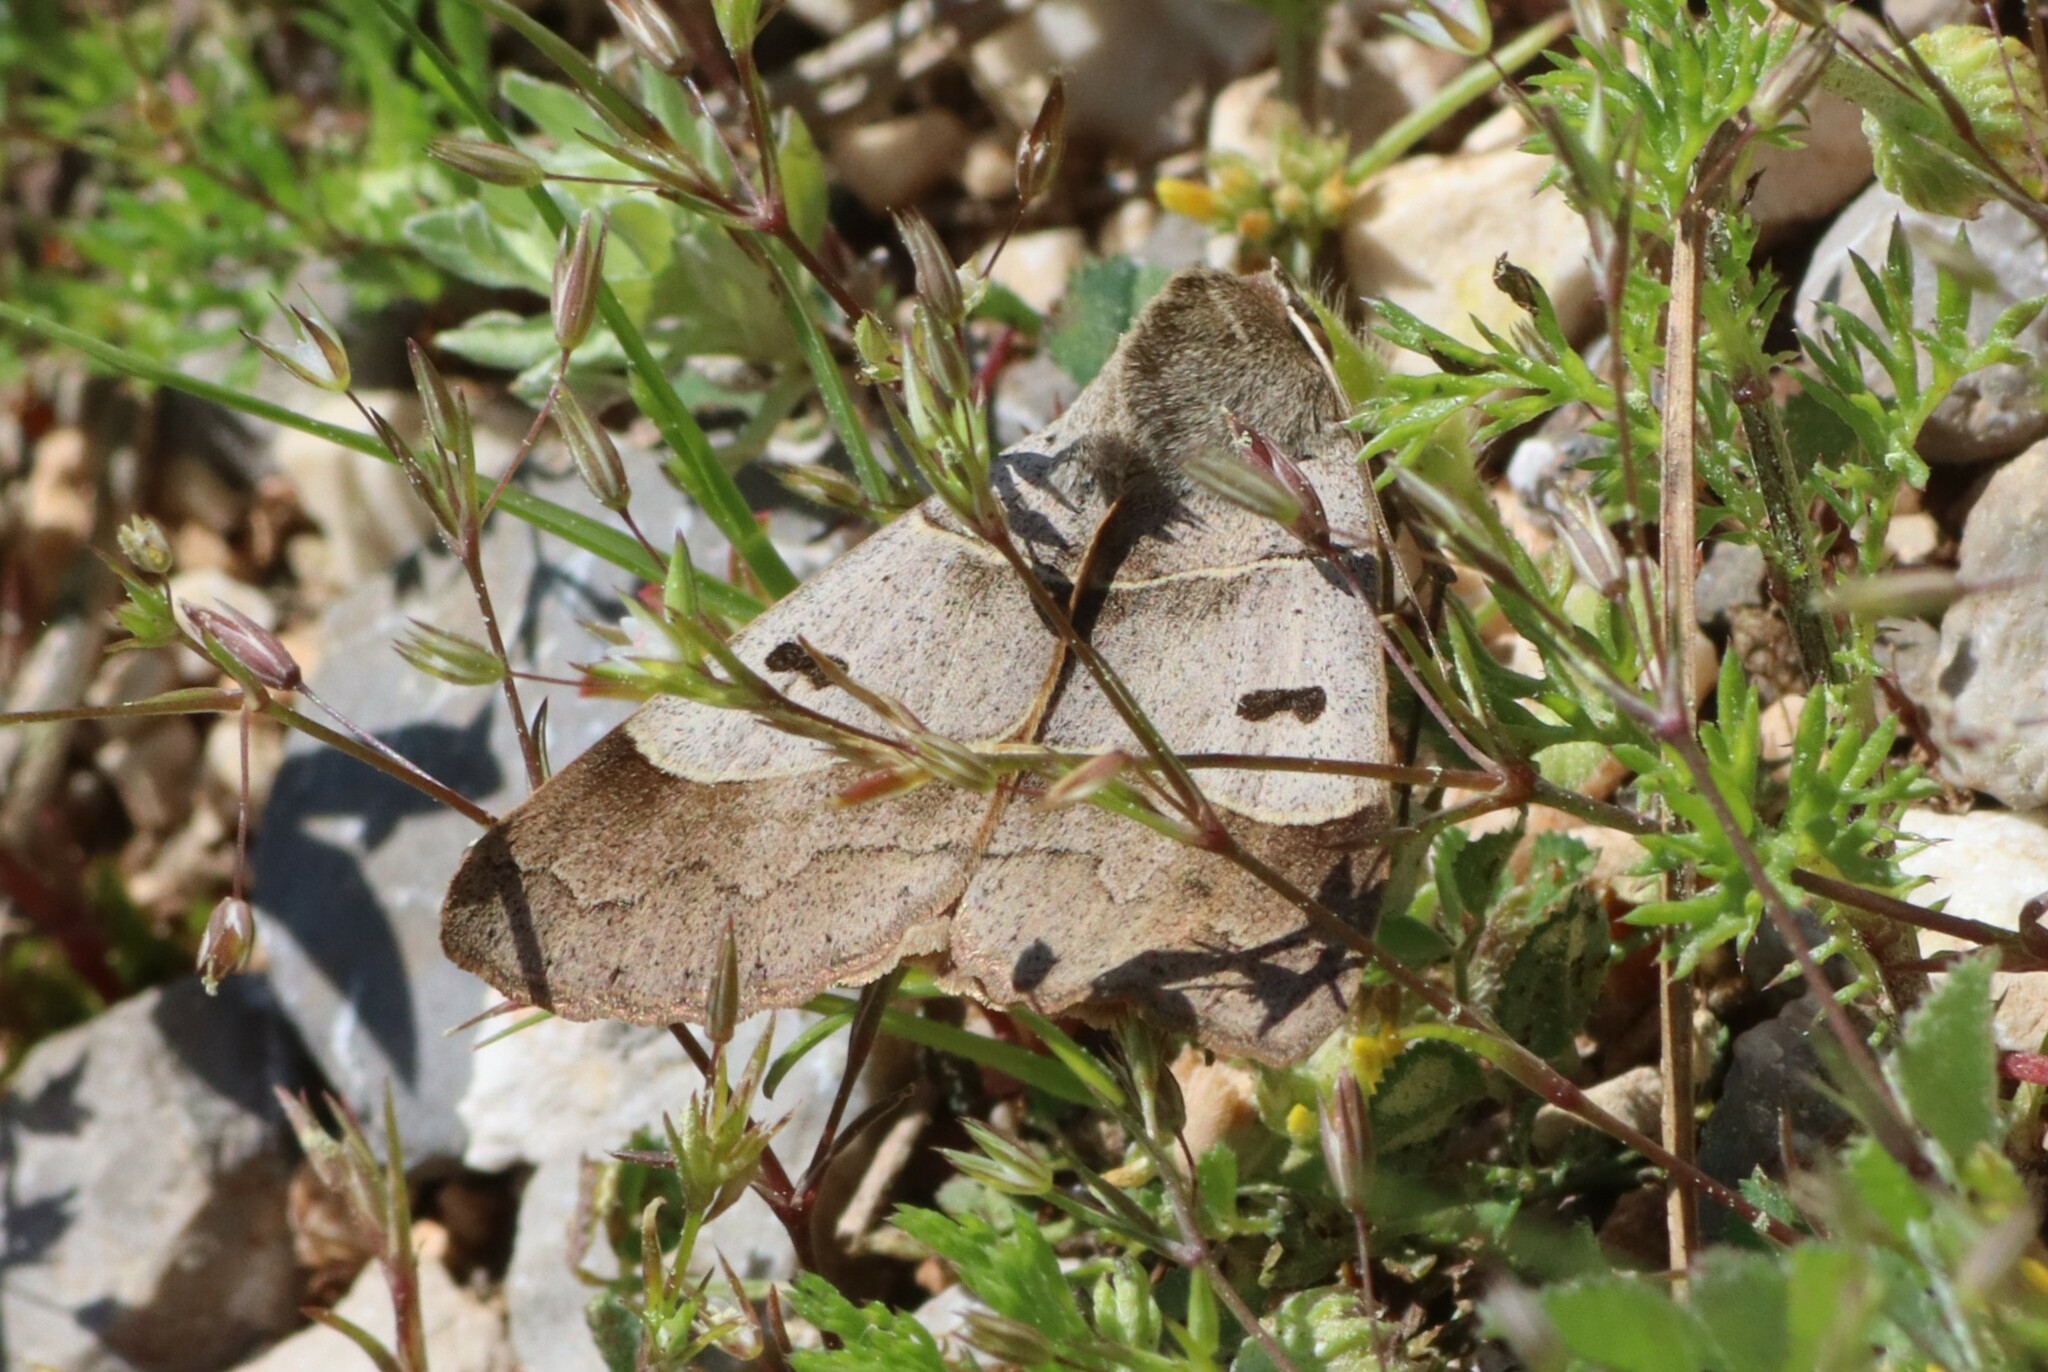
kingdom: Animalia
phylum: Arthropoda
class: Insecta
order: Lepidoptera
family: Erebidae
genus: Minucia
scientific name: Minucia lunaris
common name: Lunar double-stripe
